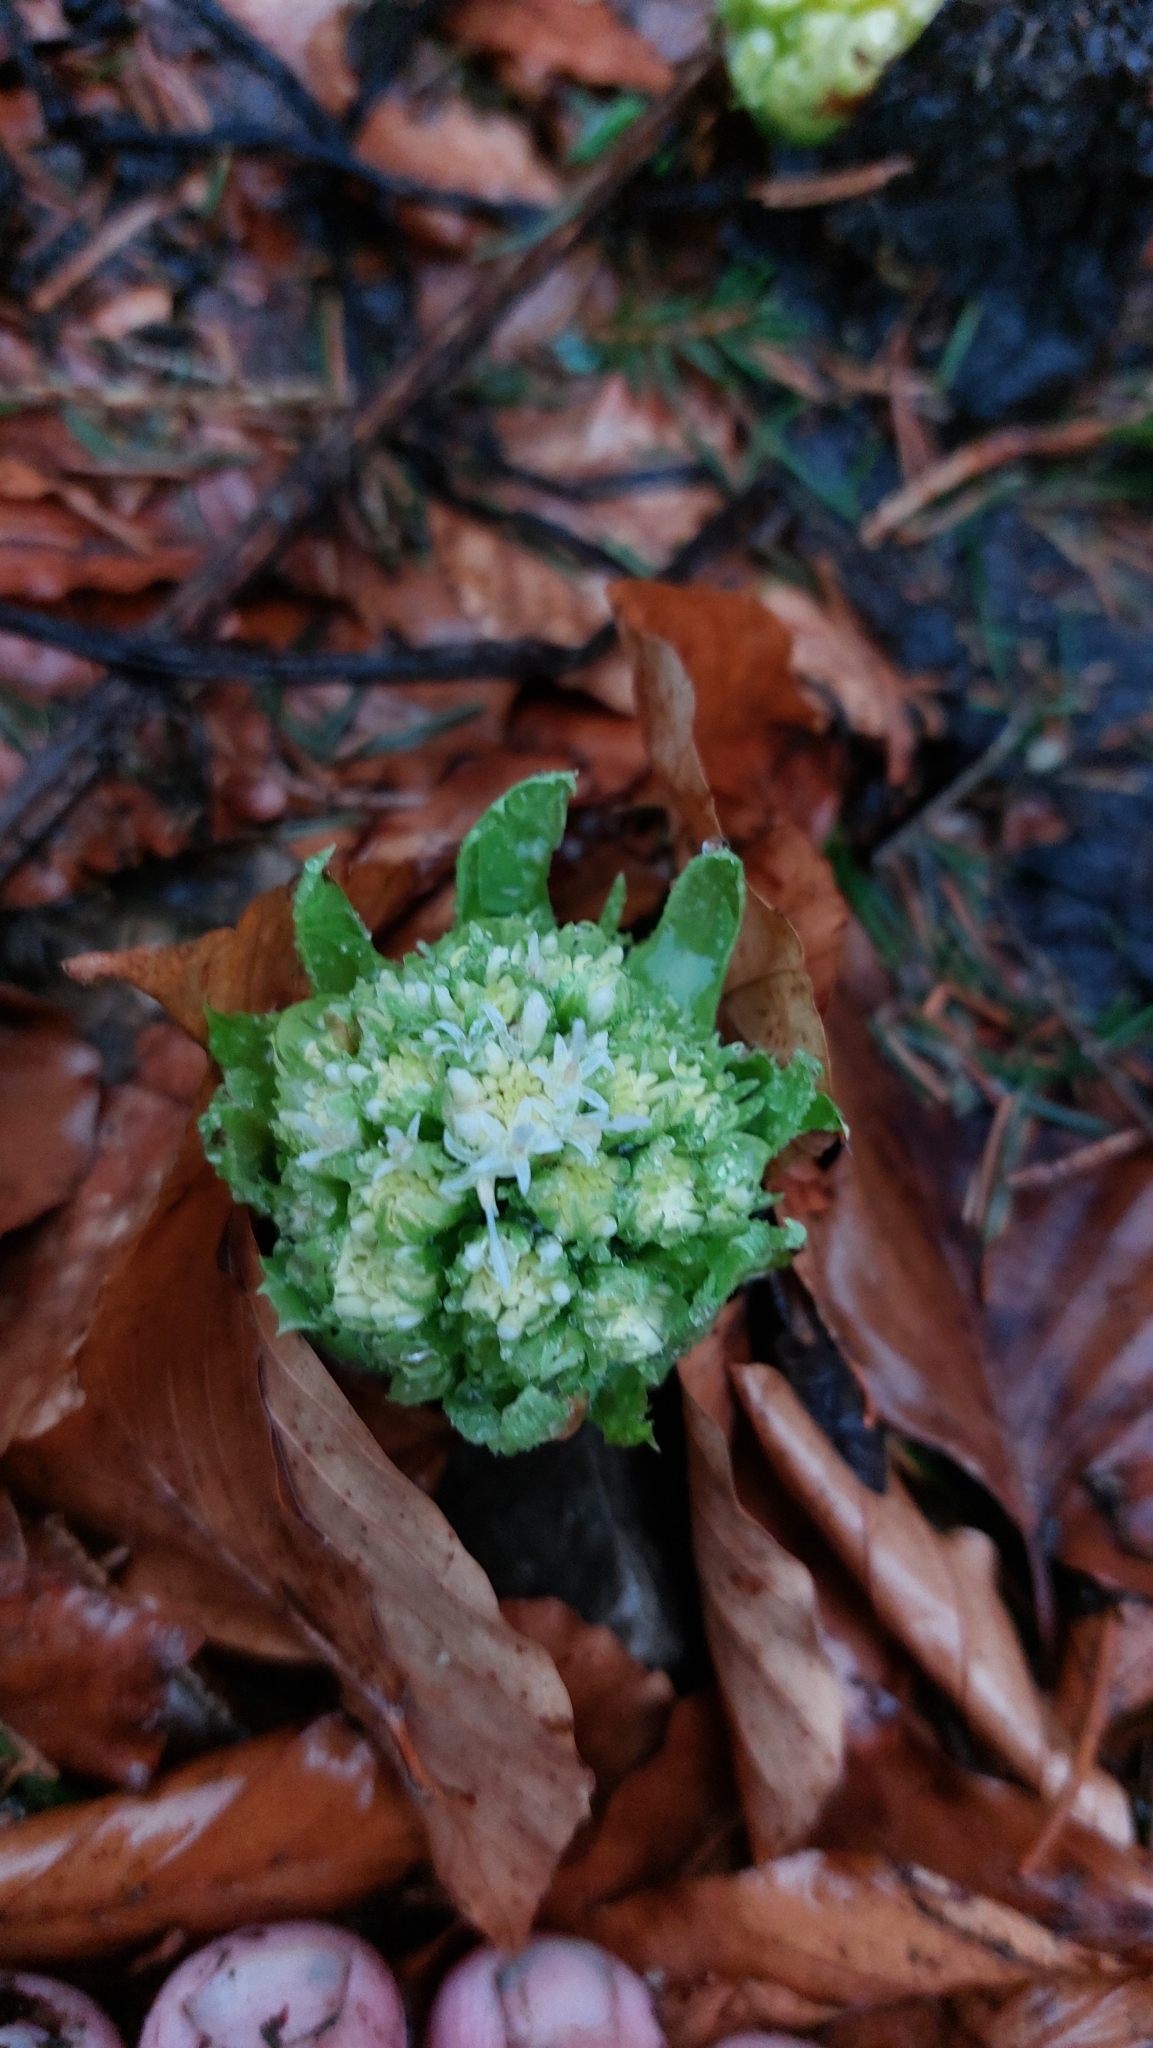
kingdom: Plantae
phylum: Tracheophyta
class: Magnoliopsida
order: Asterales
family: Asteraceae
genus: Petasites
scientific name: Petasites albus
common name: White butterbur
